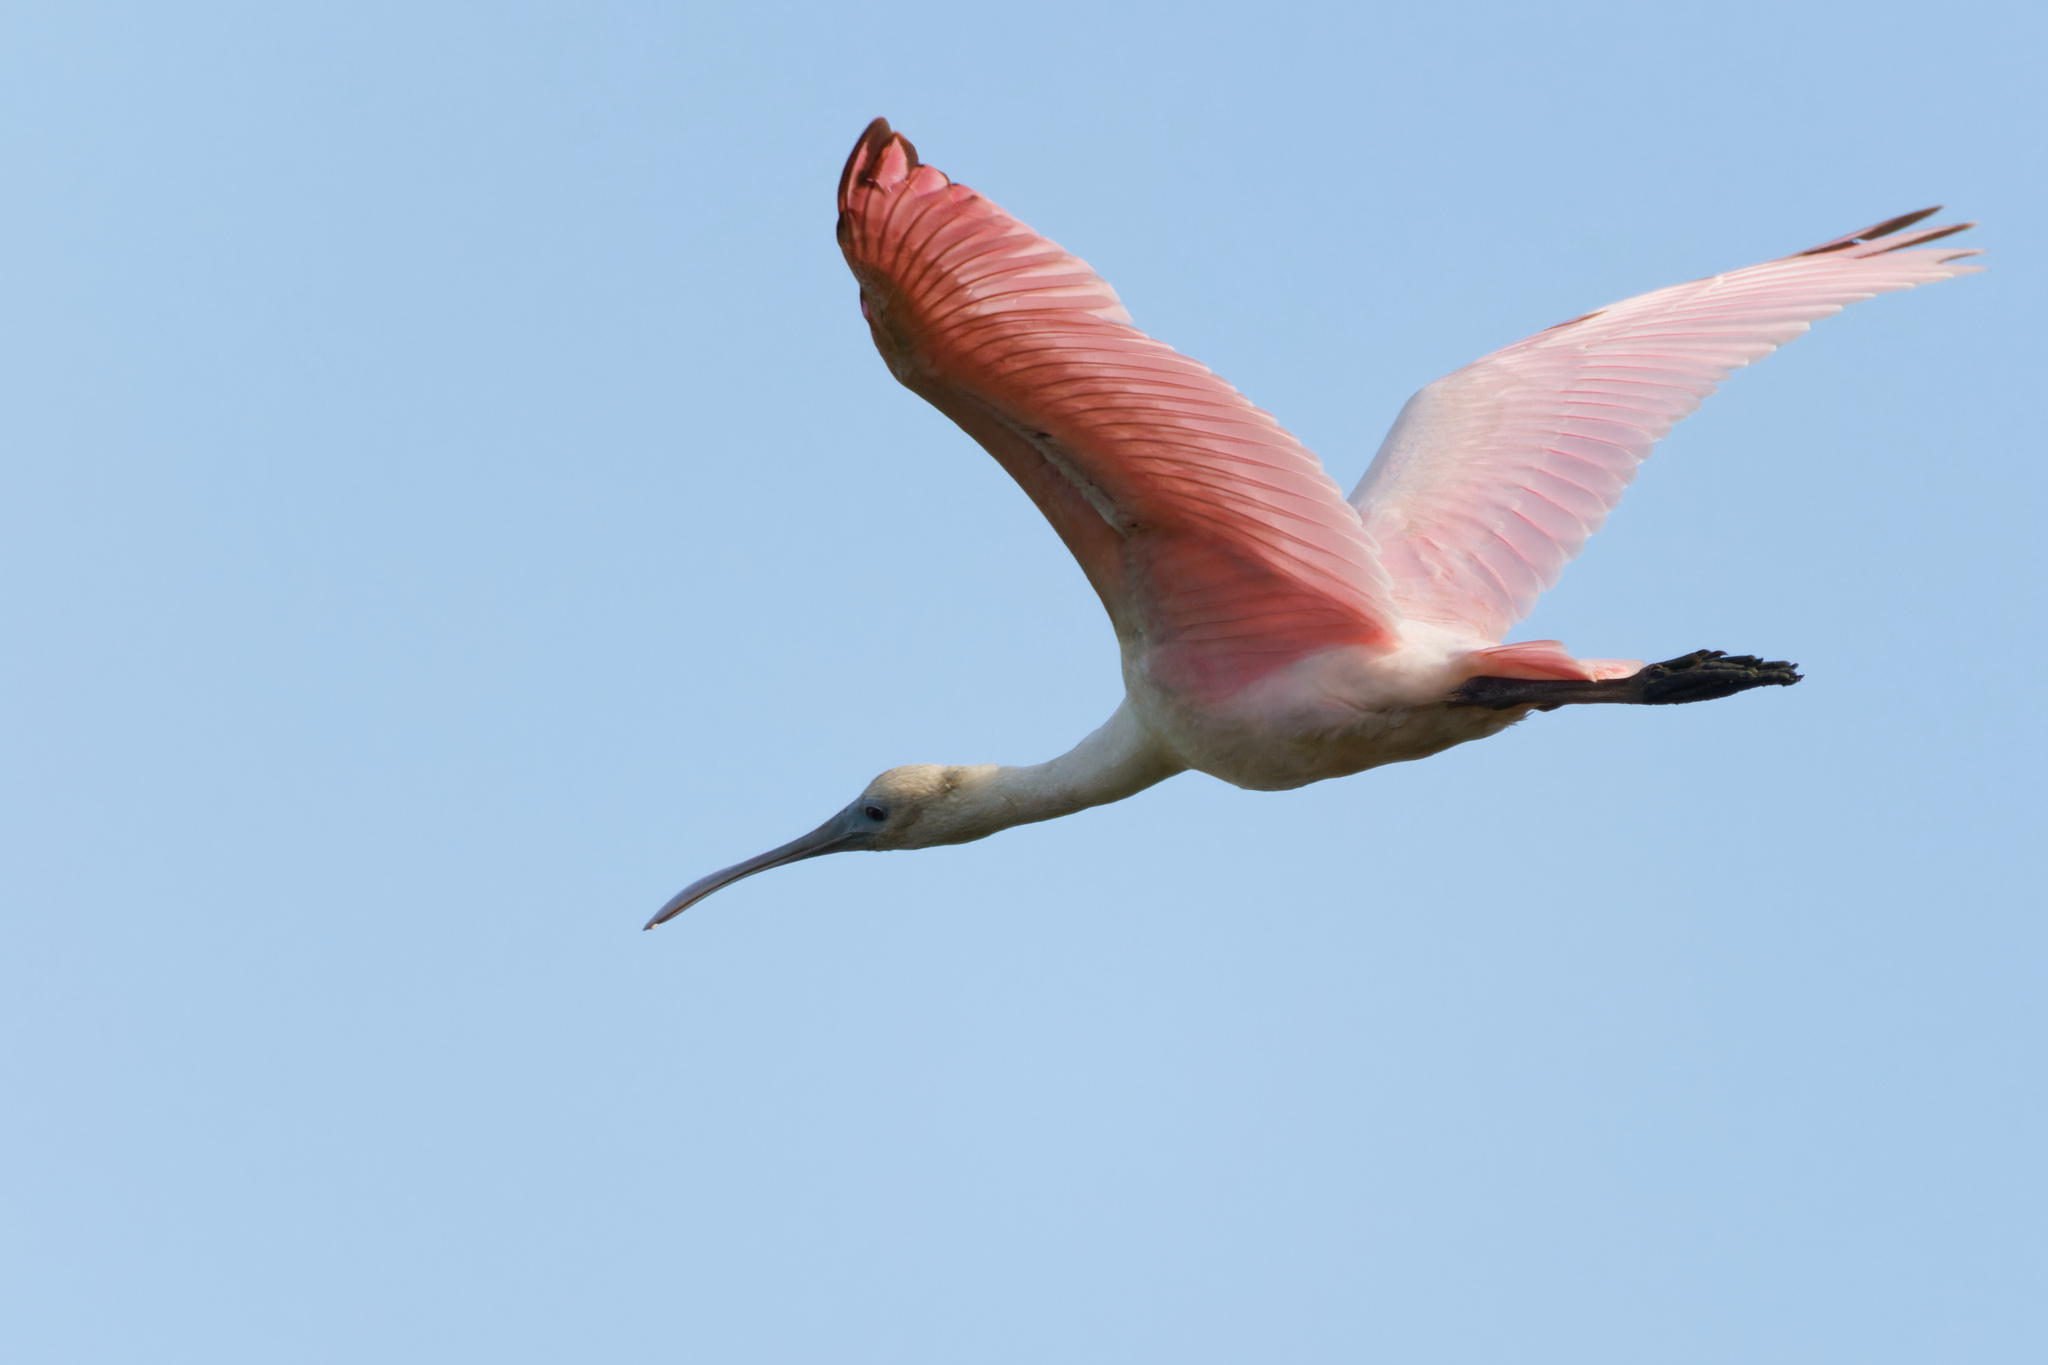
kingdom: Animalia
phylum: Chordata
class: Aves
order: Pelecaniformes
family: Threskiornithidae
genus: Platalea
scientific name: Platalea ajaja
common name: Roseate spoonbill
